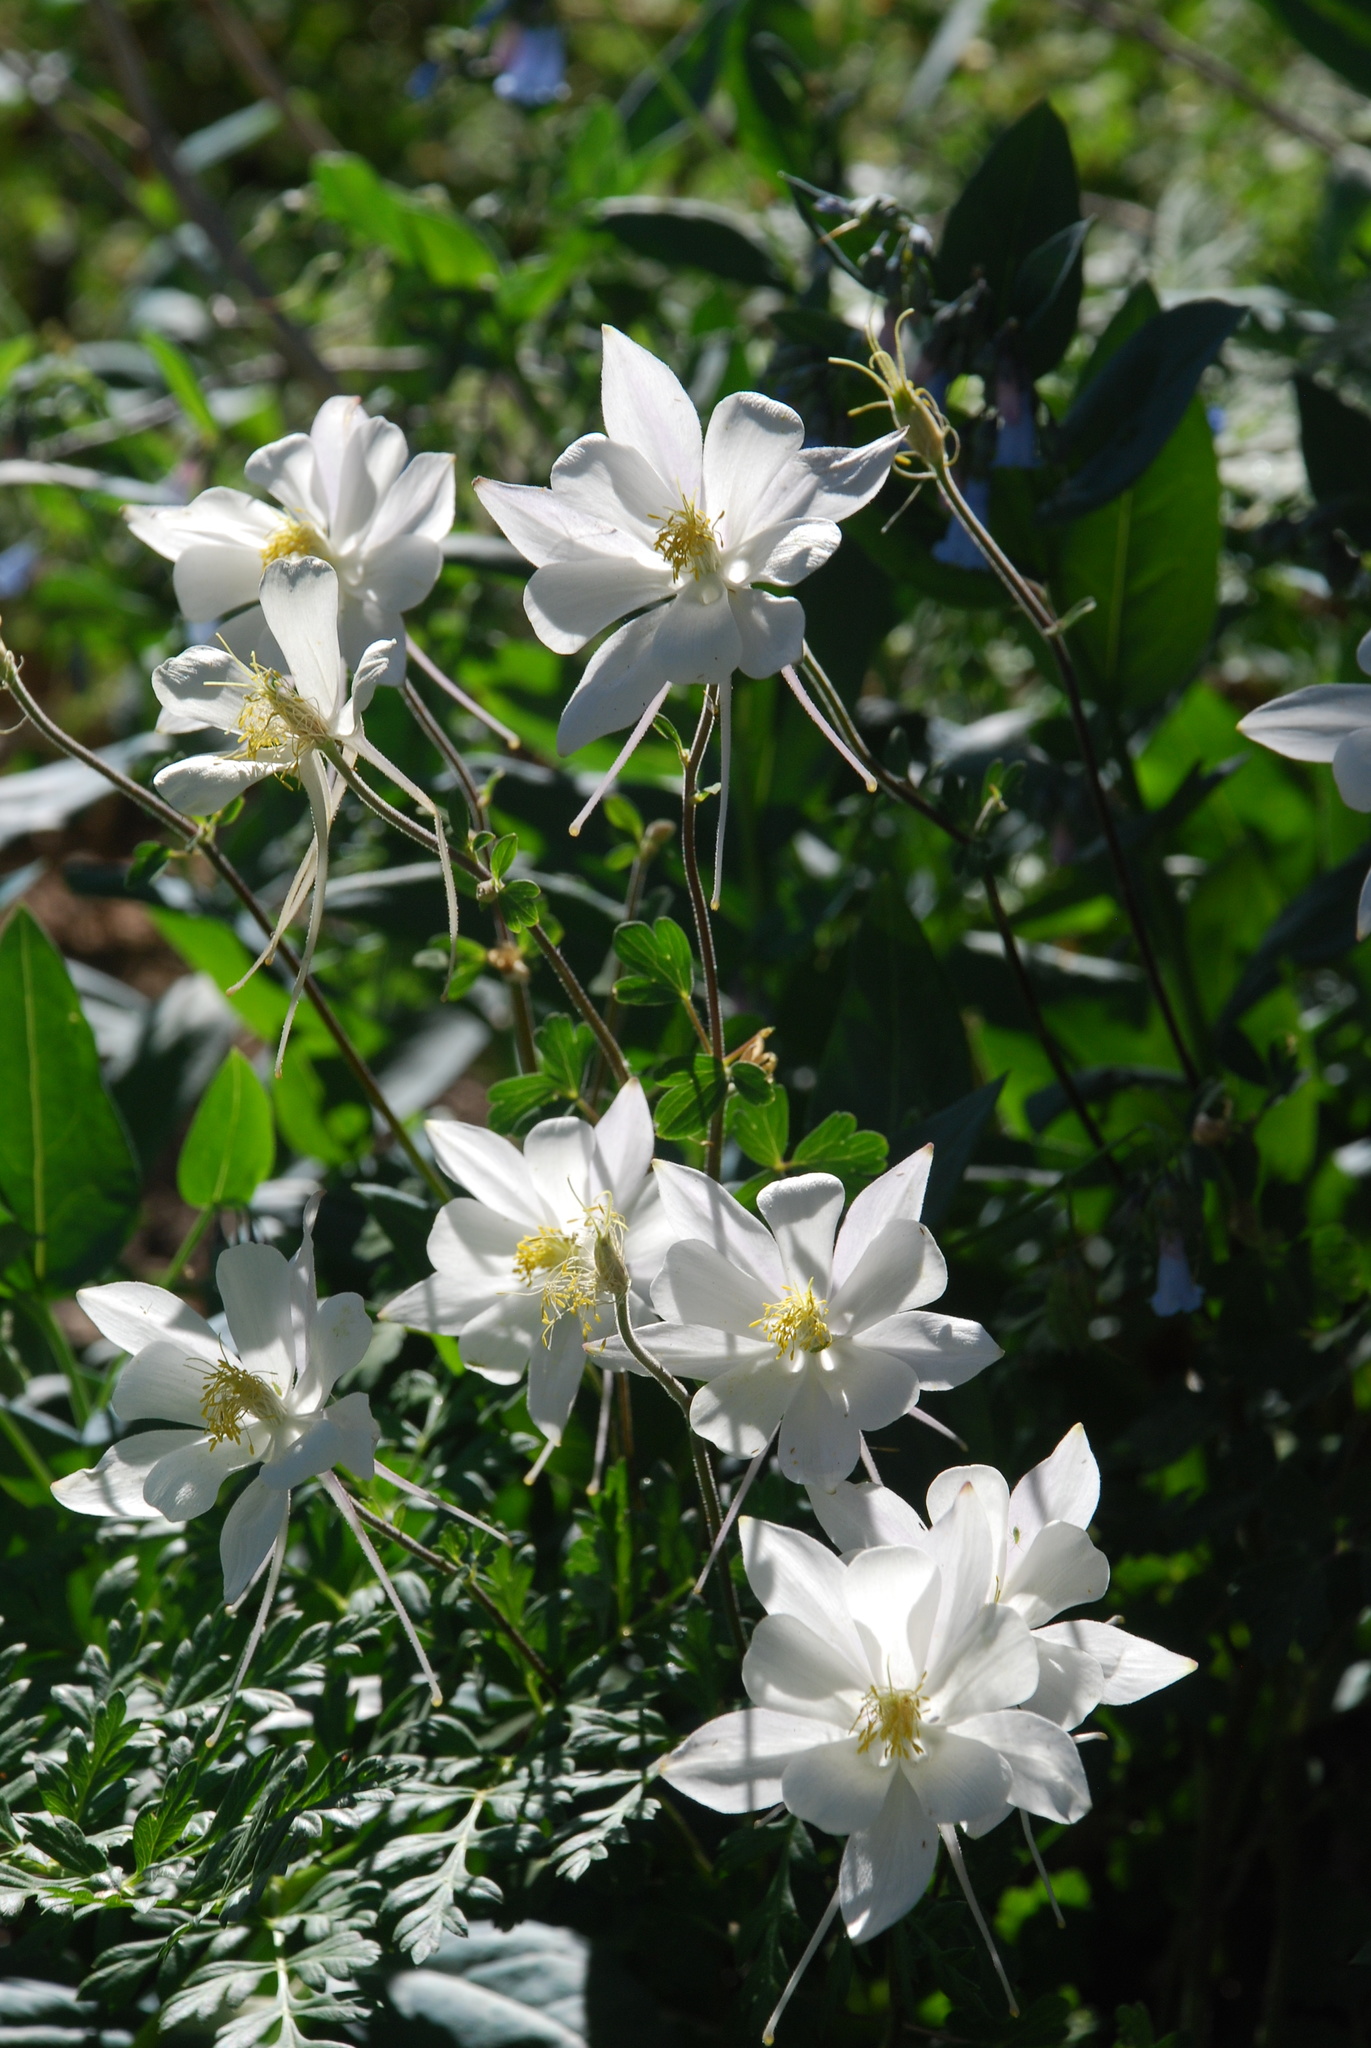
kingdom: Plantae
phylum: Tracheophyta
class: Magnoliopsida
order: Ranunculales
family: Ranunculaceae
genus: Aquilegia
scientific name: Aquilegia coerulea
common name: Rocky mountain columbine
